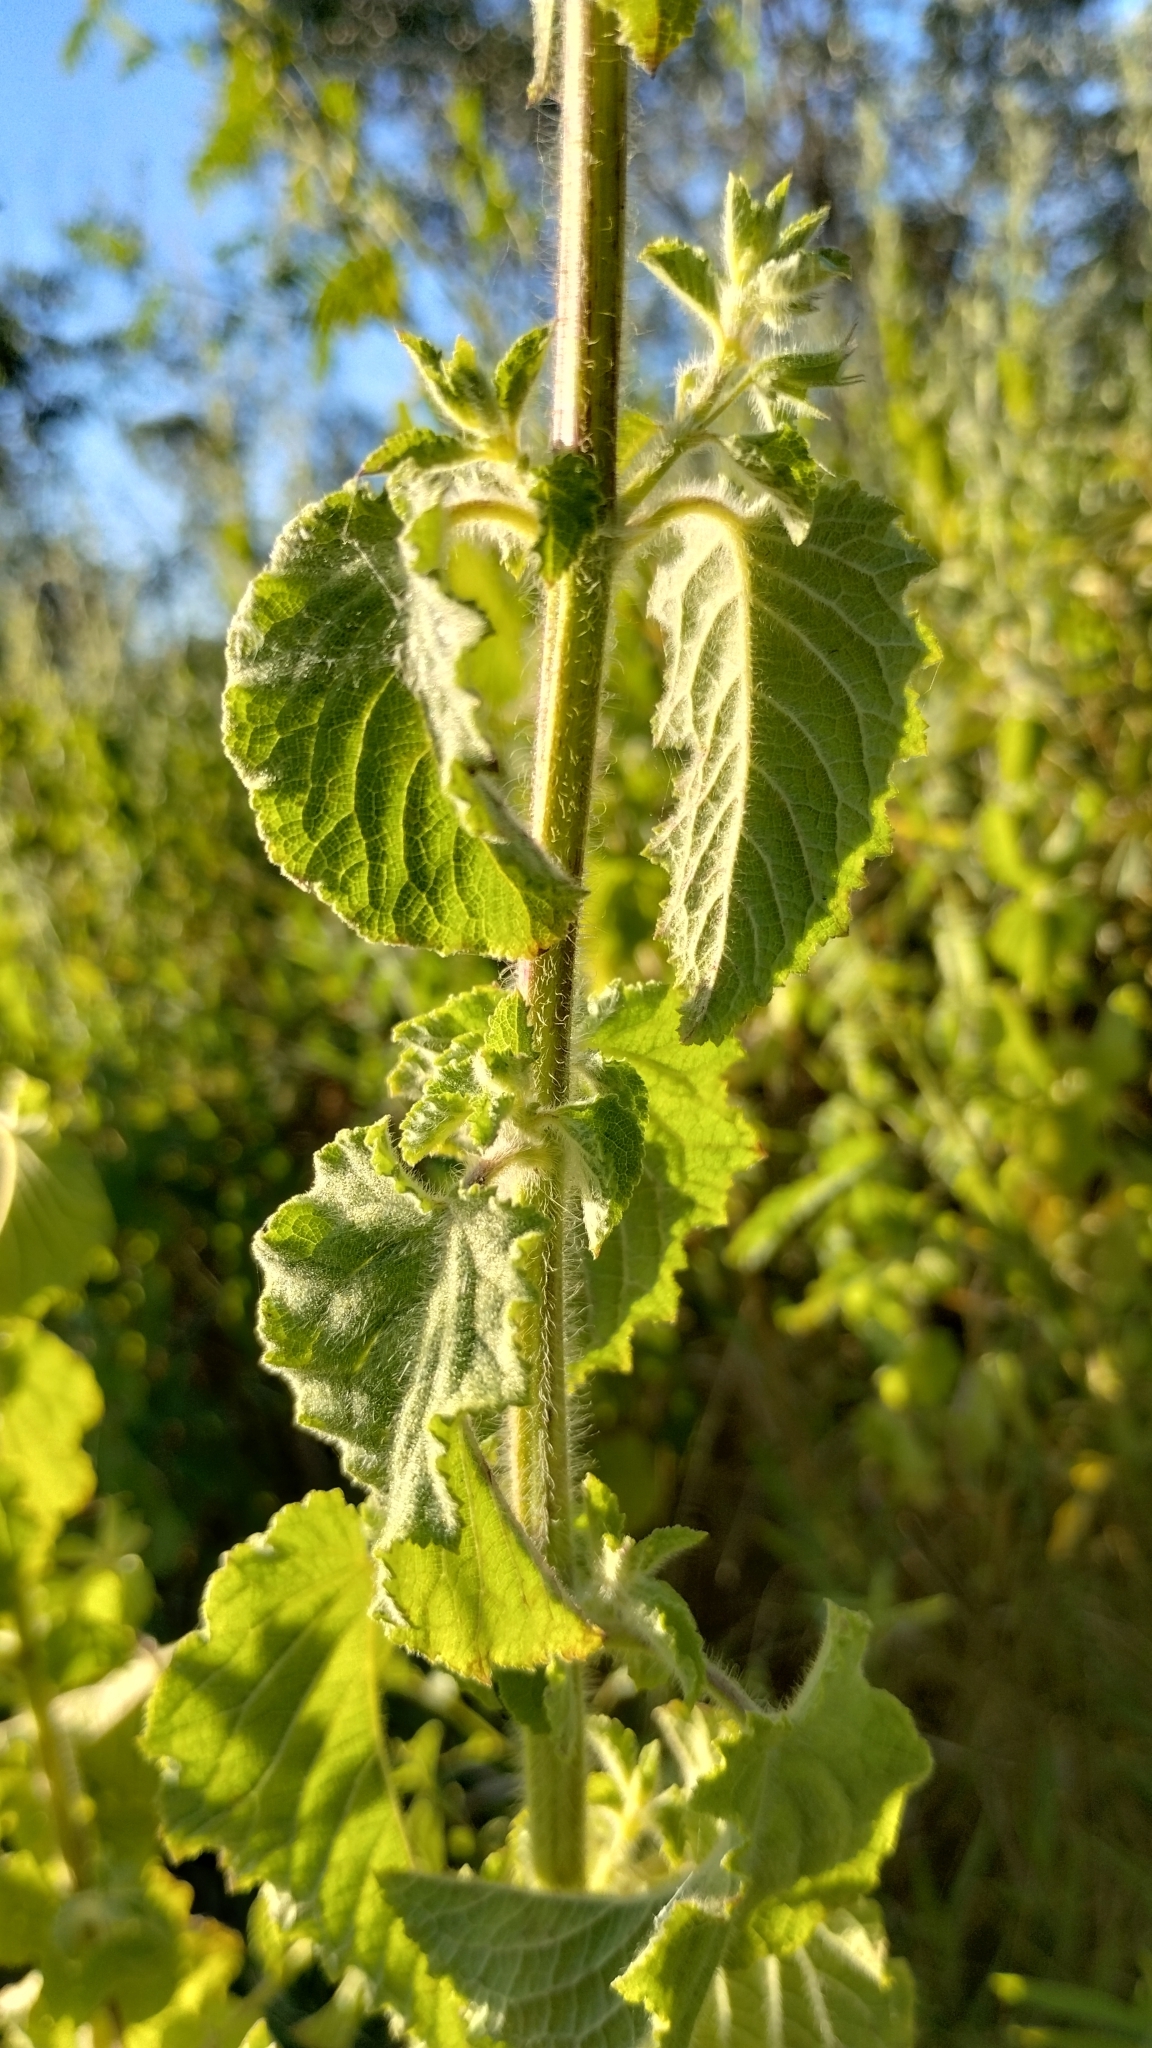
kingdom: Plantae
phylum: Tracheophyta
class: Magnoliopsida
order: Lamiales
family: Lamiaceae
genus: Mesosphaerum
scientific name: Mesosphaerum suaveolens
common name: Pignut
